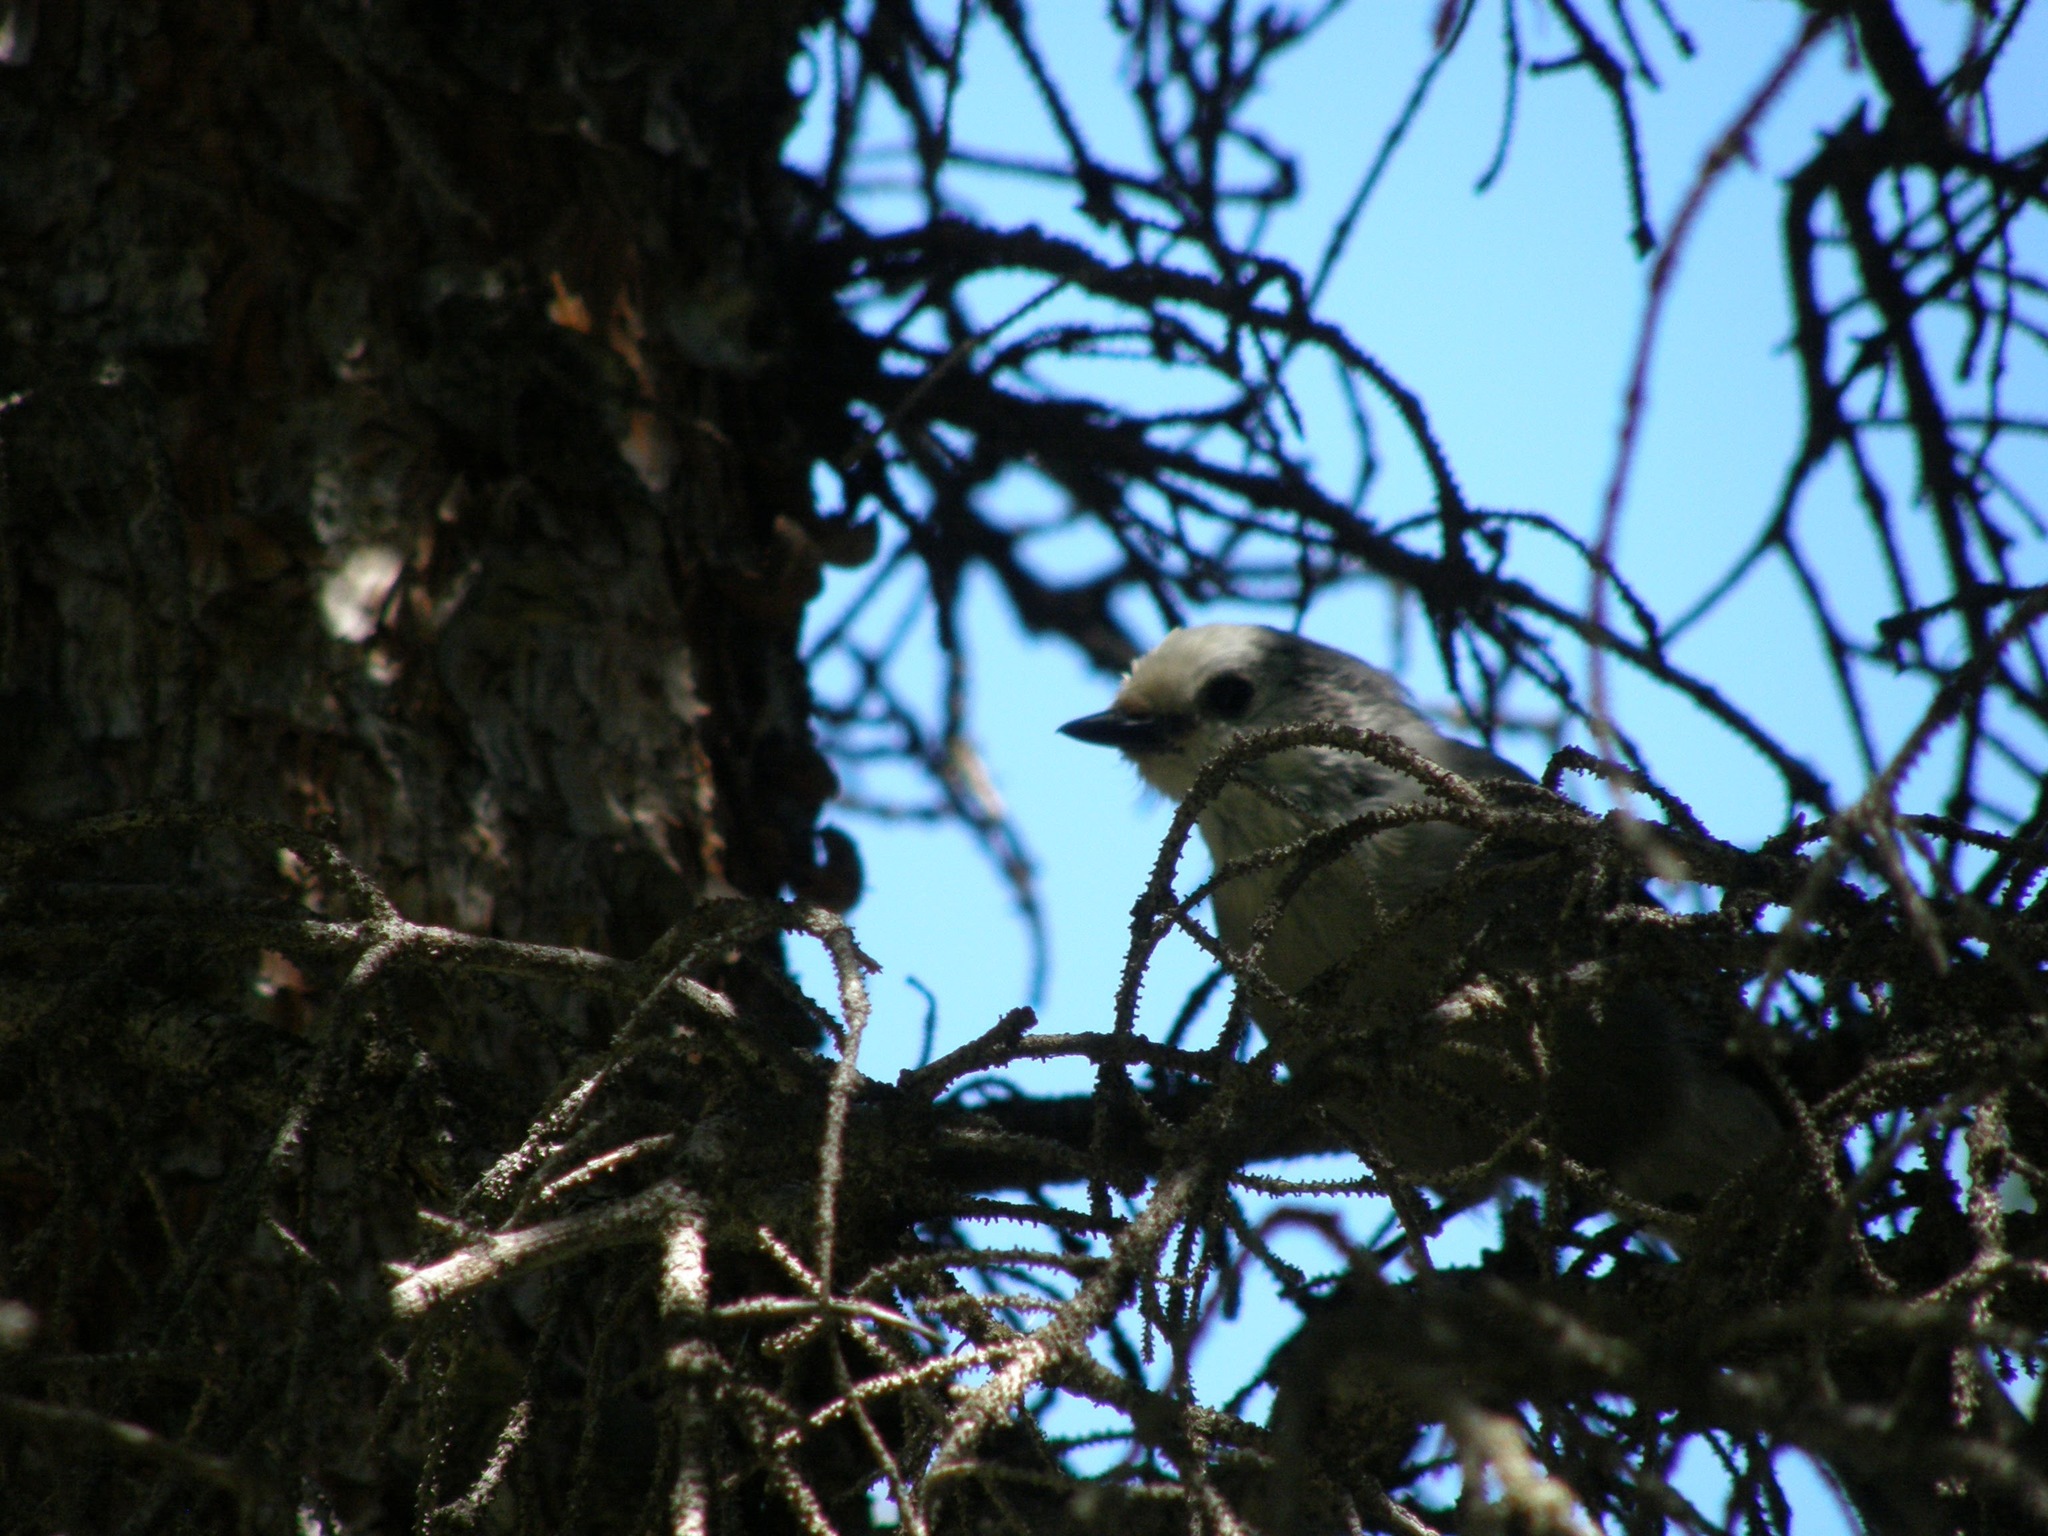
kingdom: Animalia
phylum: Chordata
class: Aves
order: Passeriformes
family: Corvidae
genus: Perisoreus
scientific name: Perisoreus canadensis
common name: Gray jay
